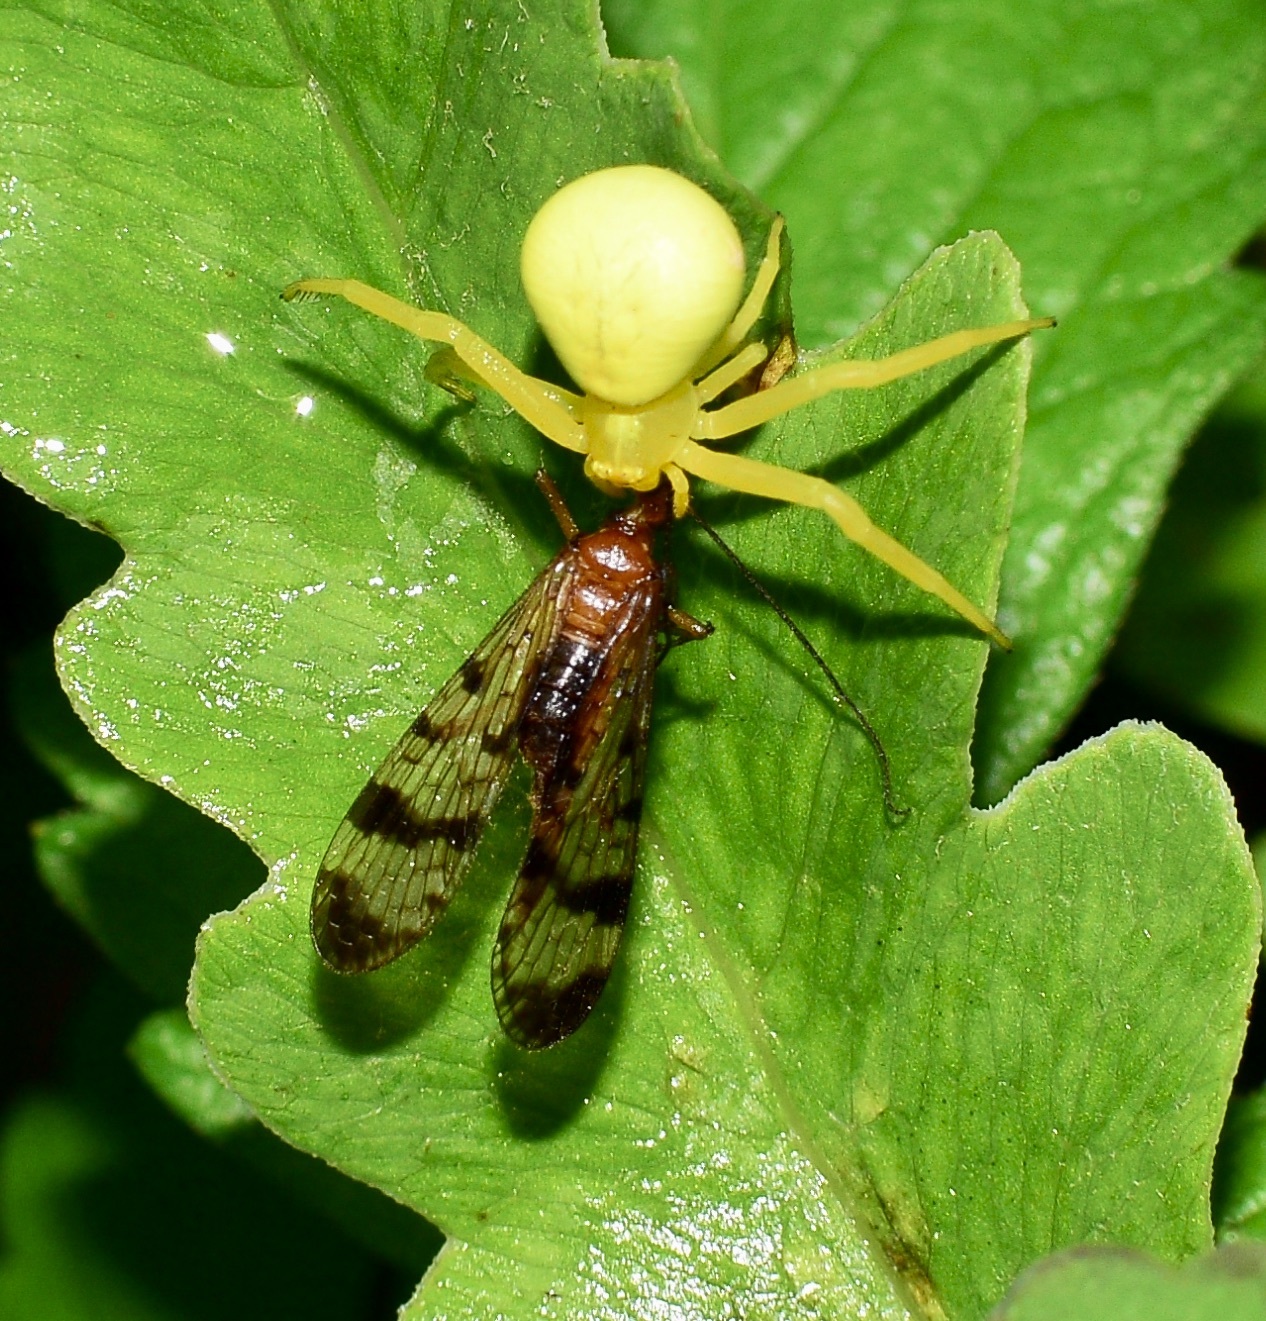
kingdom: Animalia
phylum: Arthropoda
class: Arachnida
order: Araneae
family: Thomisidae
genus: Misumena
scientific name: Misumena vatia
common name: Goldenrod crab spider
